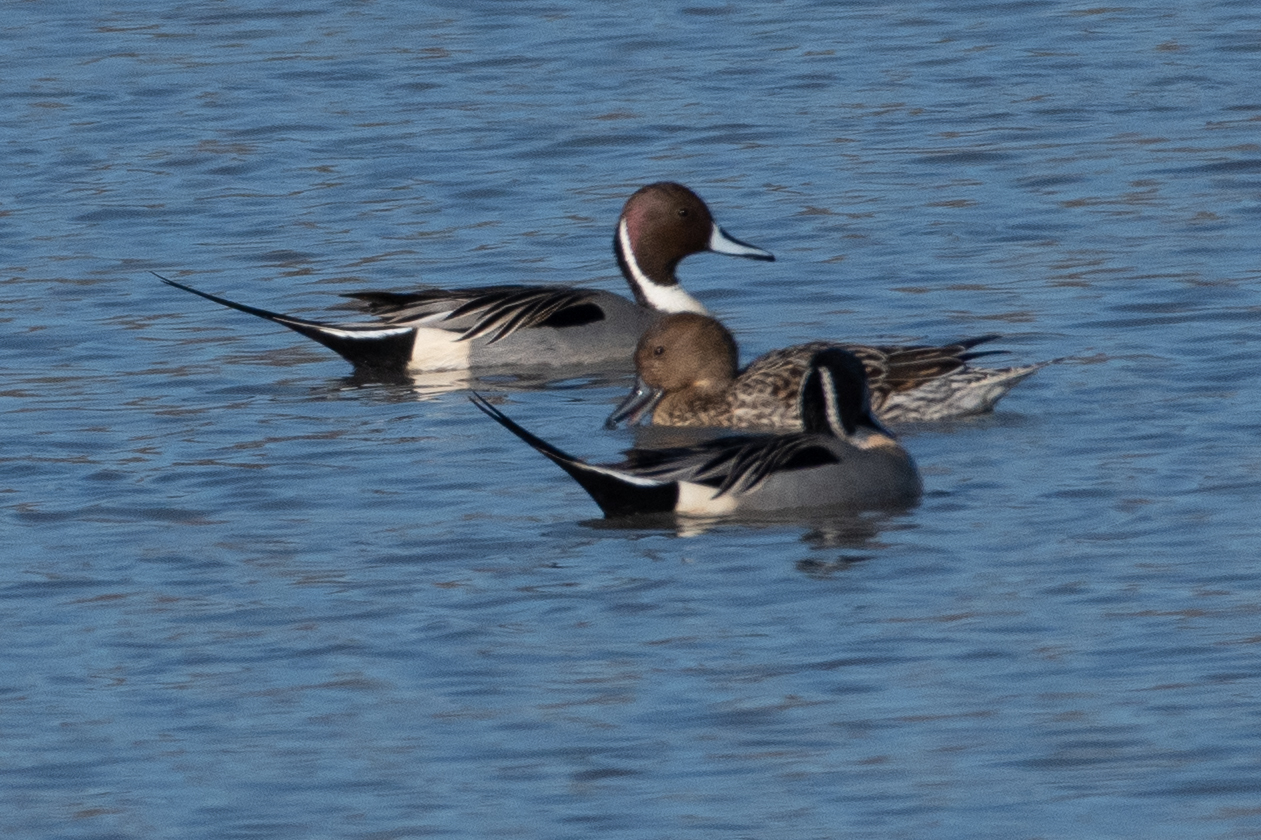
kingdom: Animalia
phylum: Chordata
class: Aves
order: Anseriformes
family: Anatidae
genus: Anas
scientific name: Anas acuta
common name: Northern pintail
